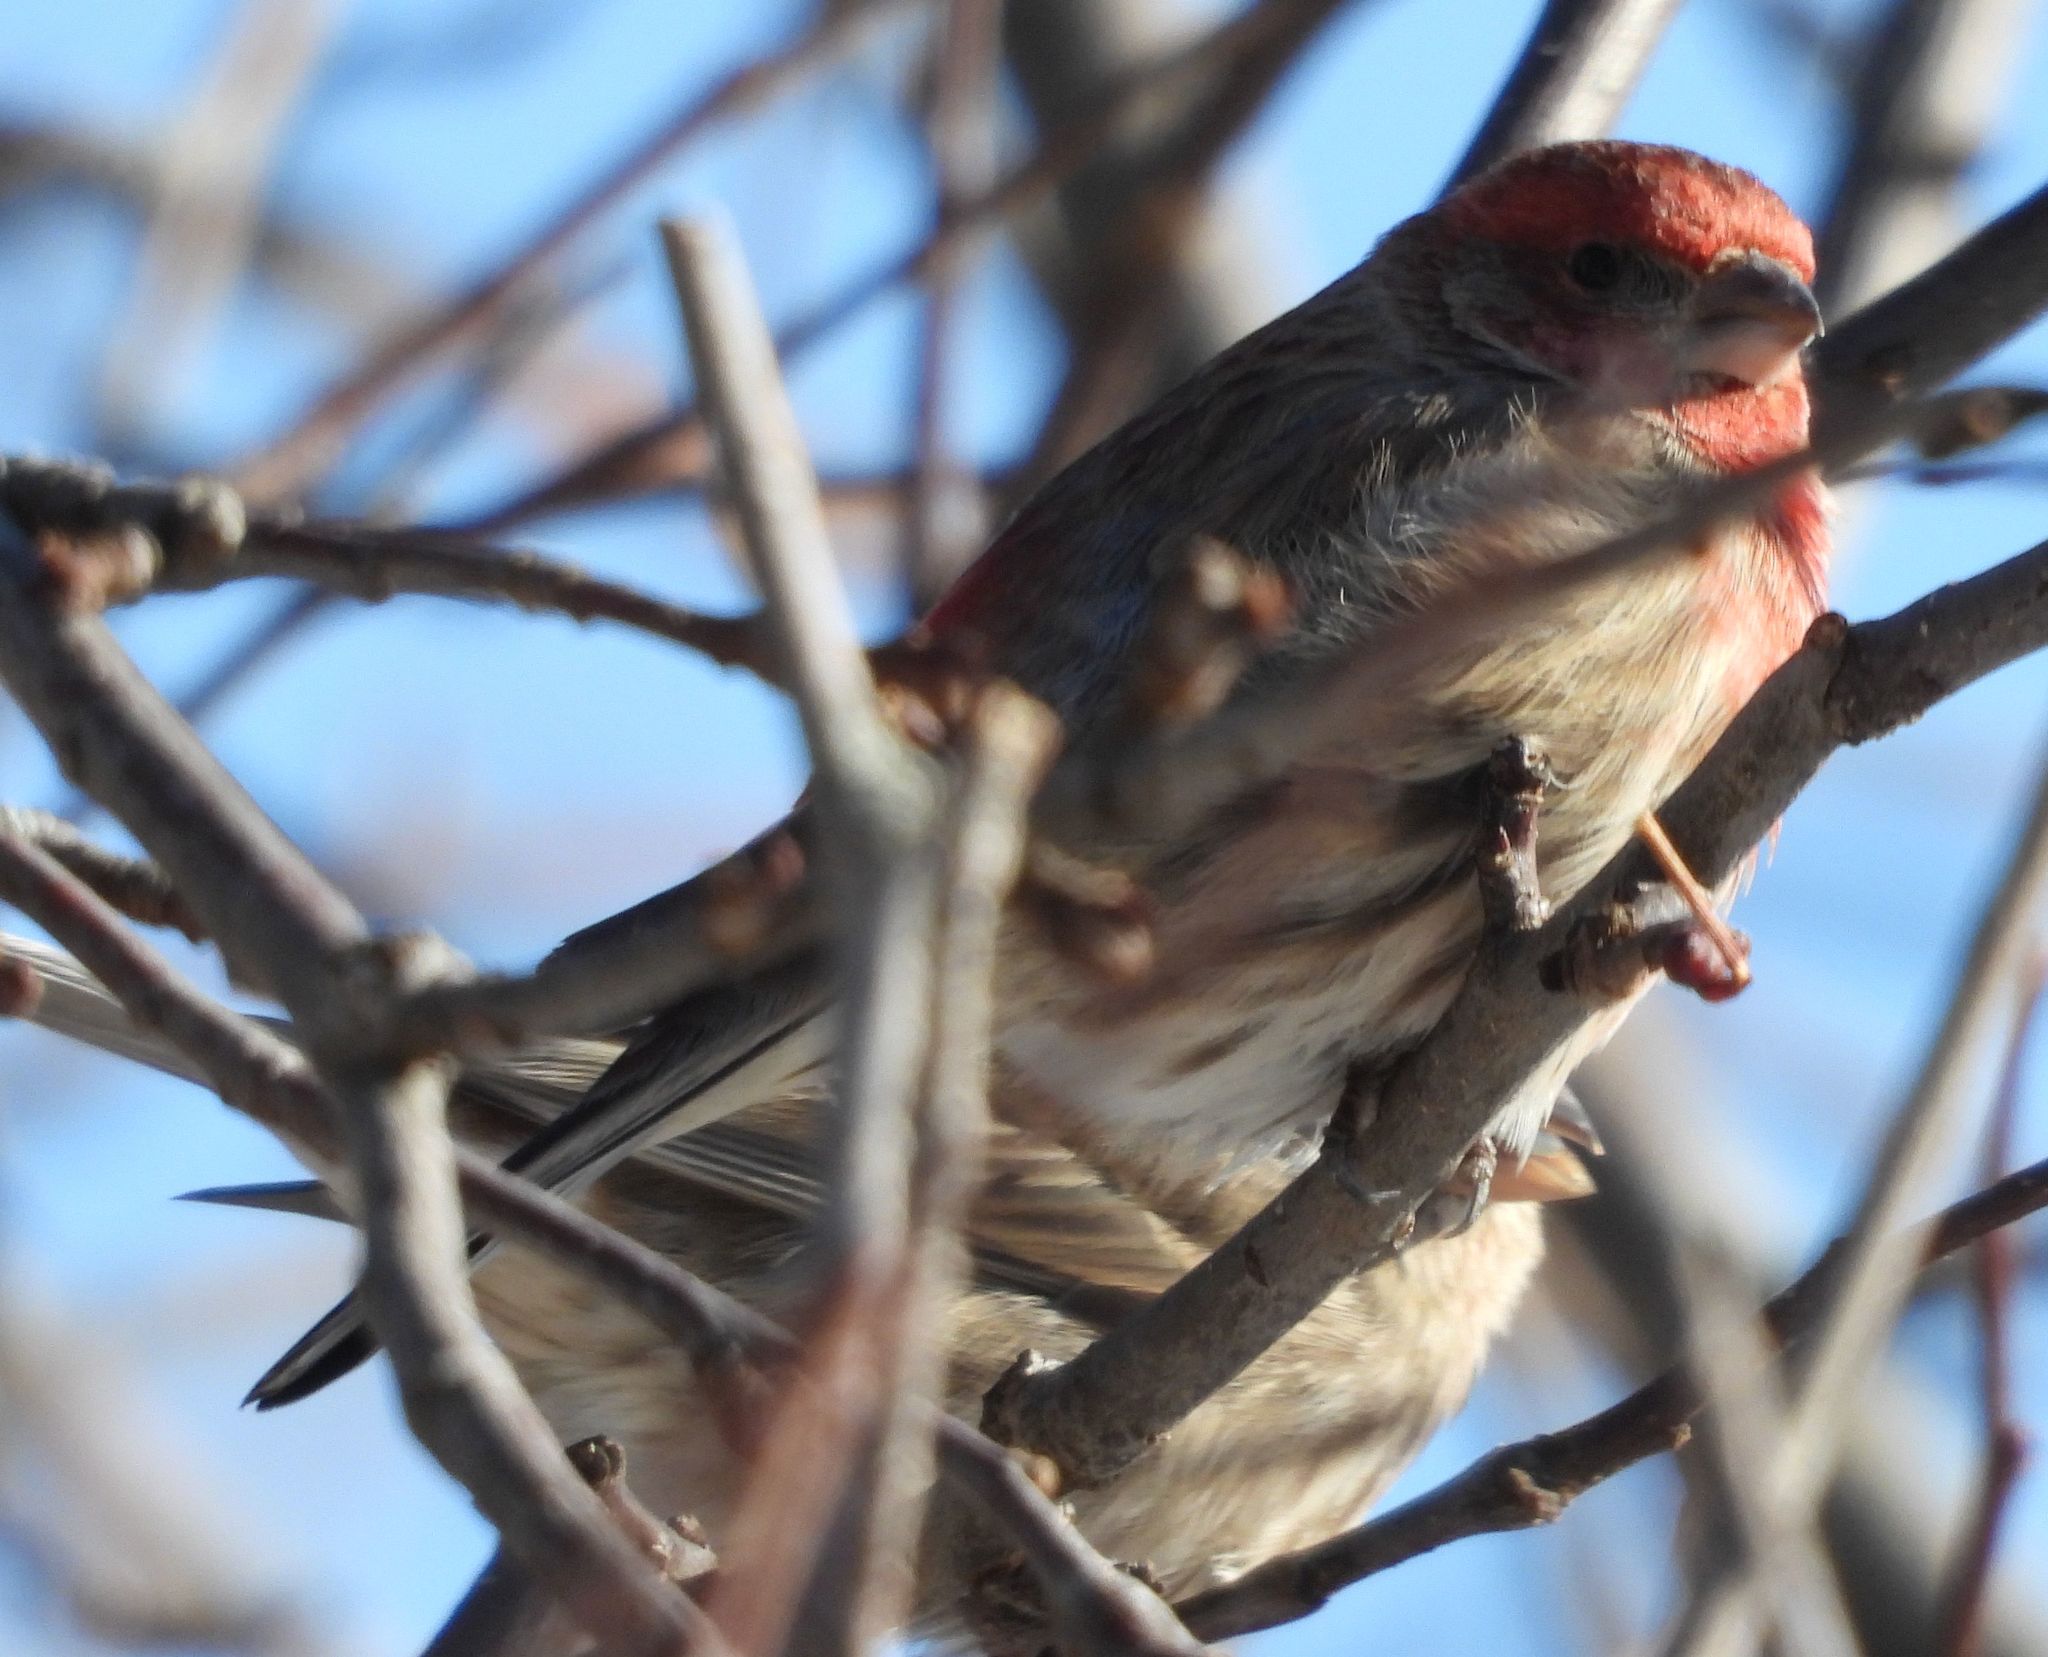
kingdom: Animalia
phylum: Chordata
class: Aves
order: Passeriformes
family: Fringillidae
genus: Haemorhous
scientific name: Haemorhous mexicanus
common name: House finch
